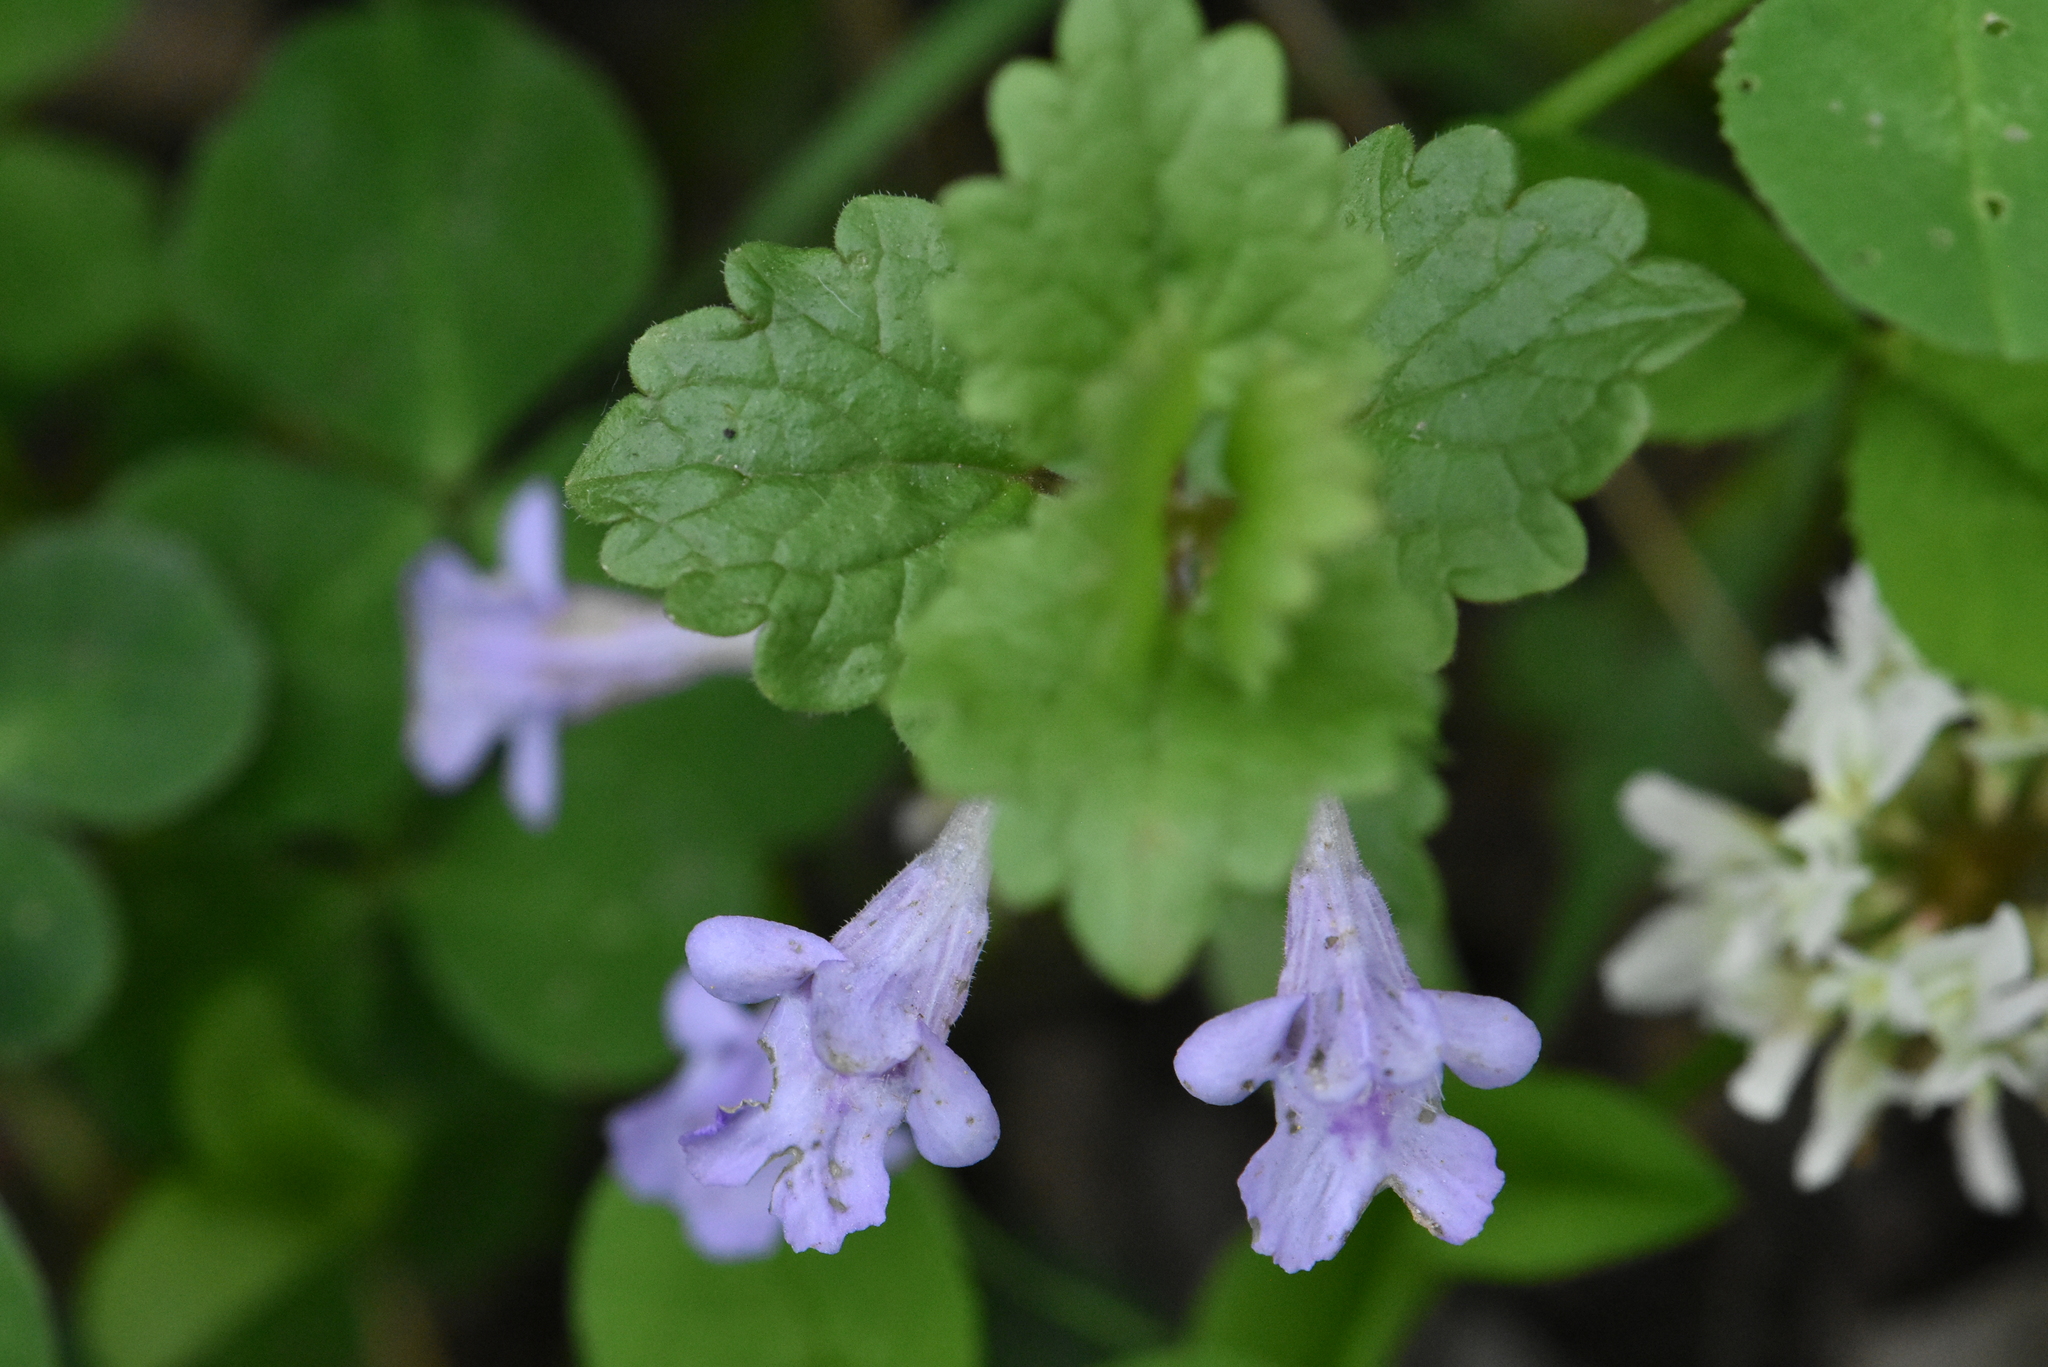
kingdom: Plantae
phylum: Tracheophyta
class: Magnoliopsida
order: Lamiales
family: Lamiaceae
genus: Glechoma
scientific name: Glechoma hederacea
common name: Ground ivy
